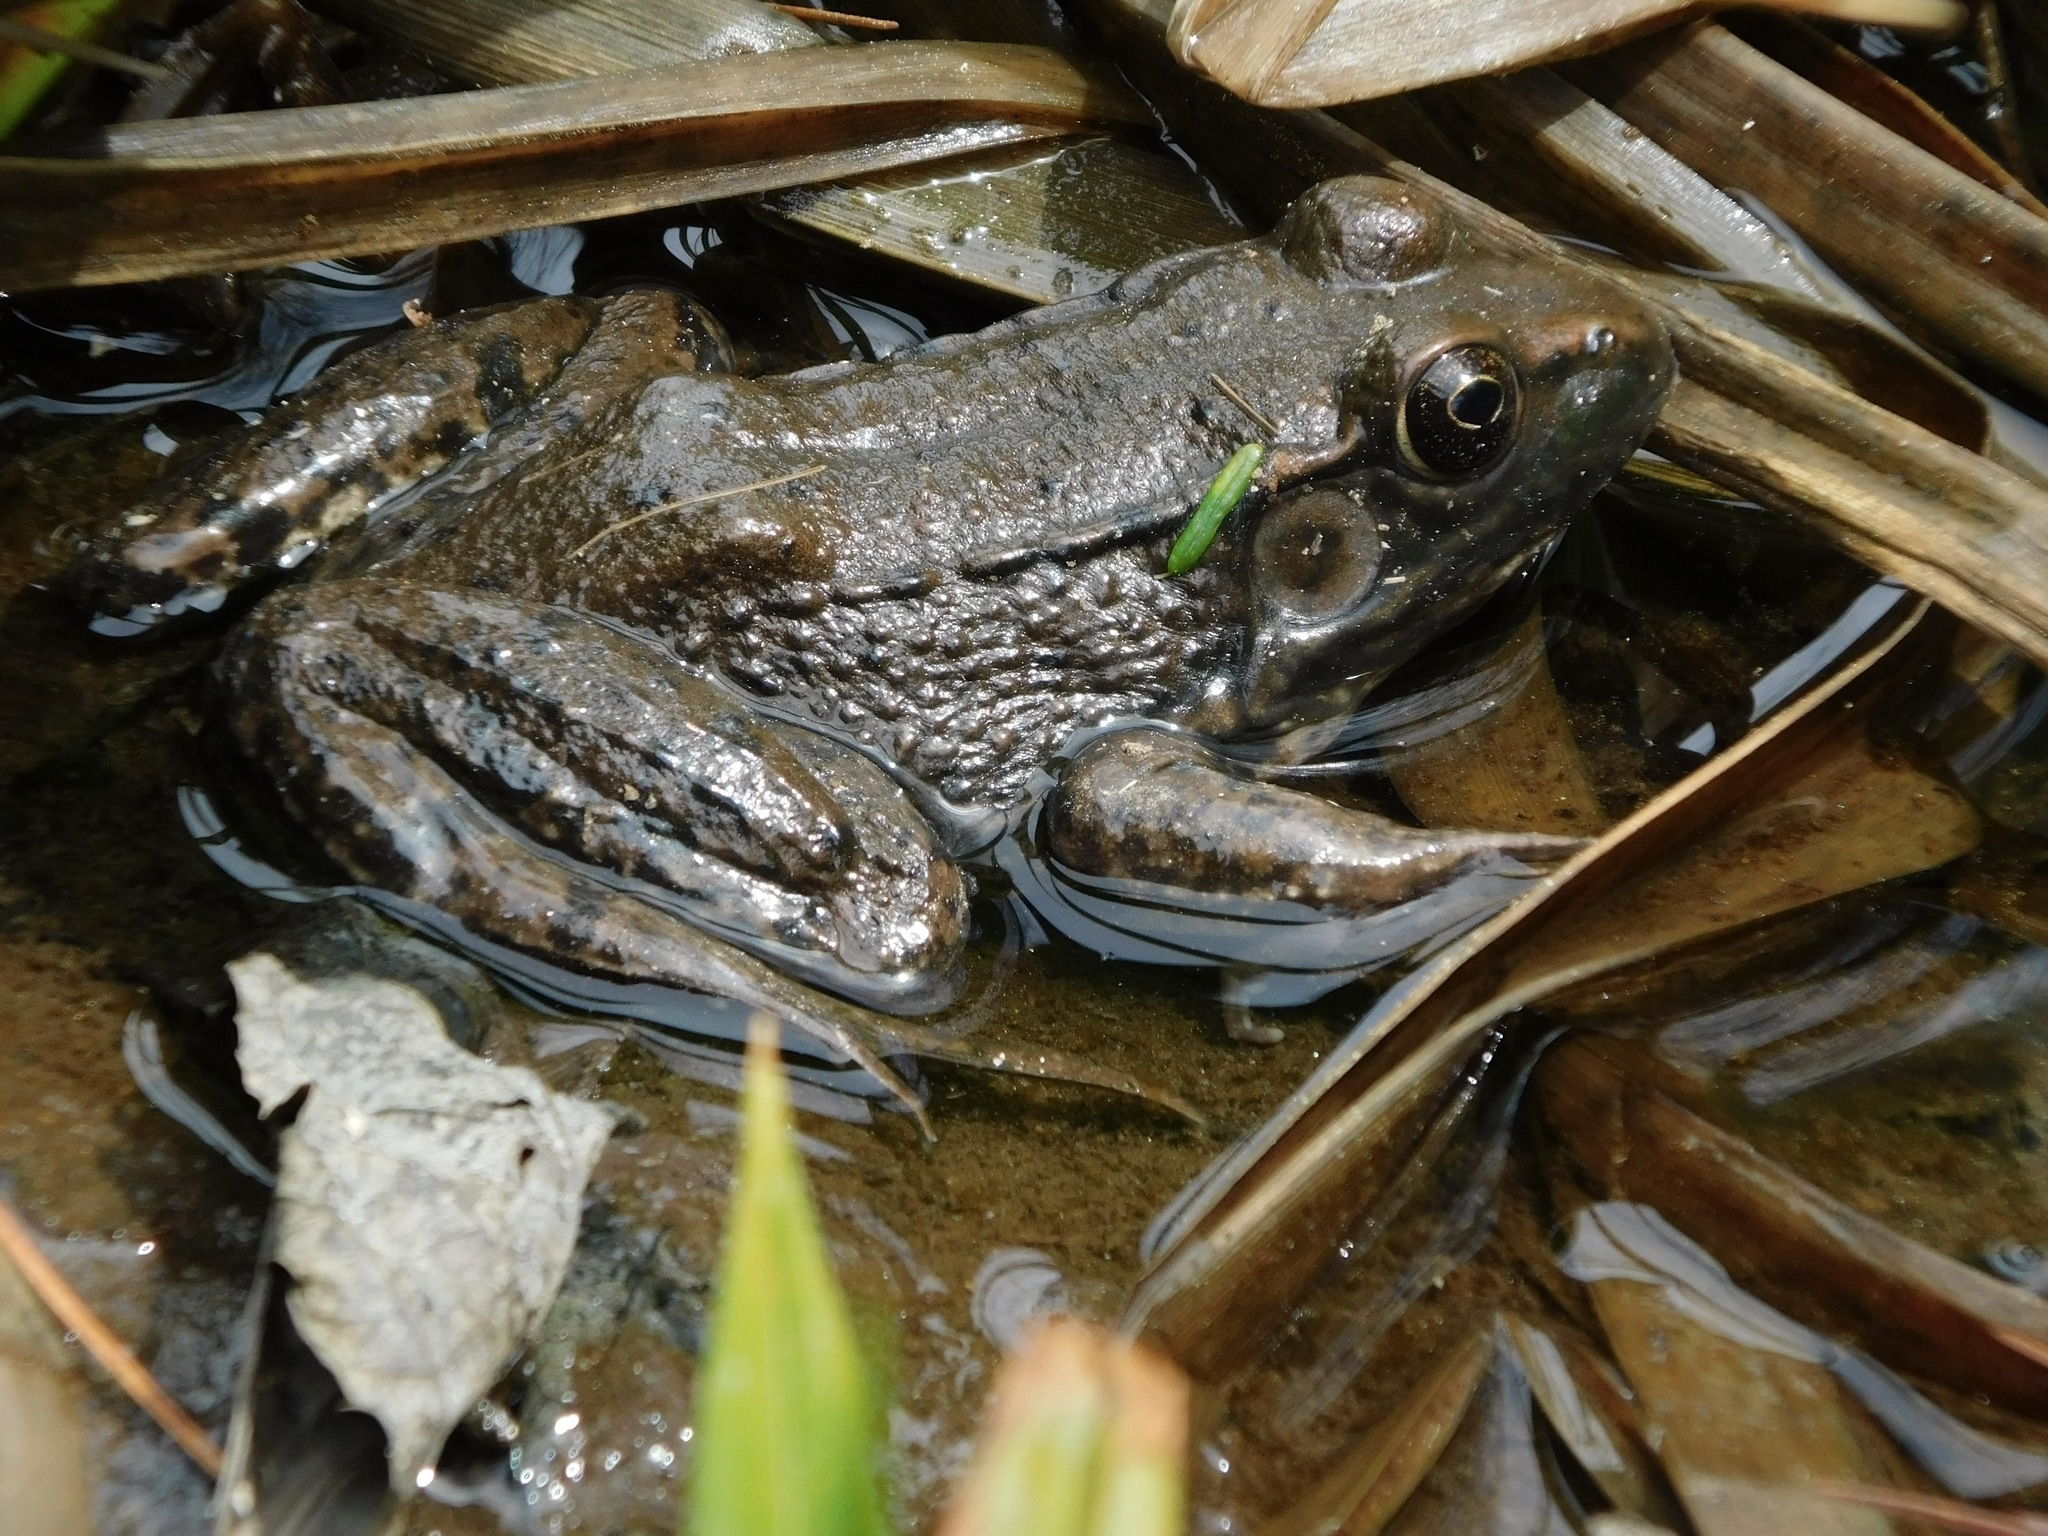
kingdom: Animalia
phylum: Chordata
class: Amphibia
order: Anura
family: Ranidae
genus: Lithobates
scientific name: Lithobates clamitans
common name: Green frog
